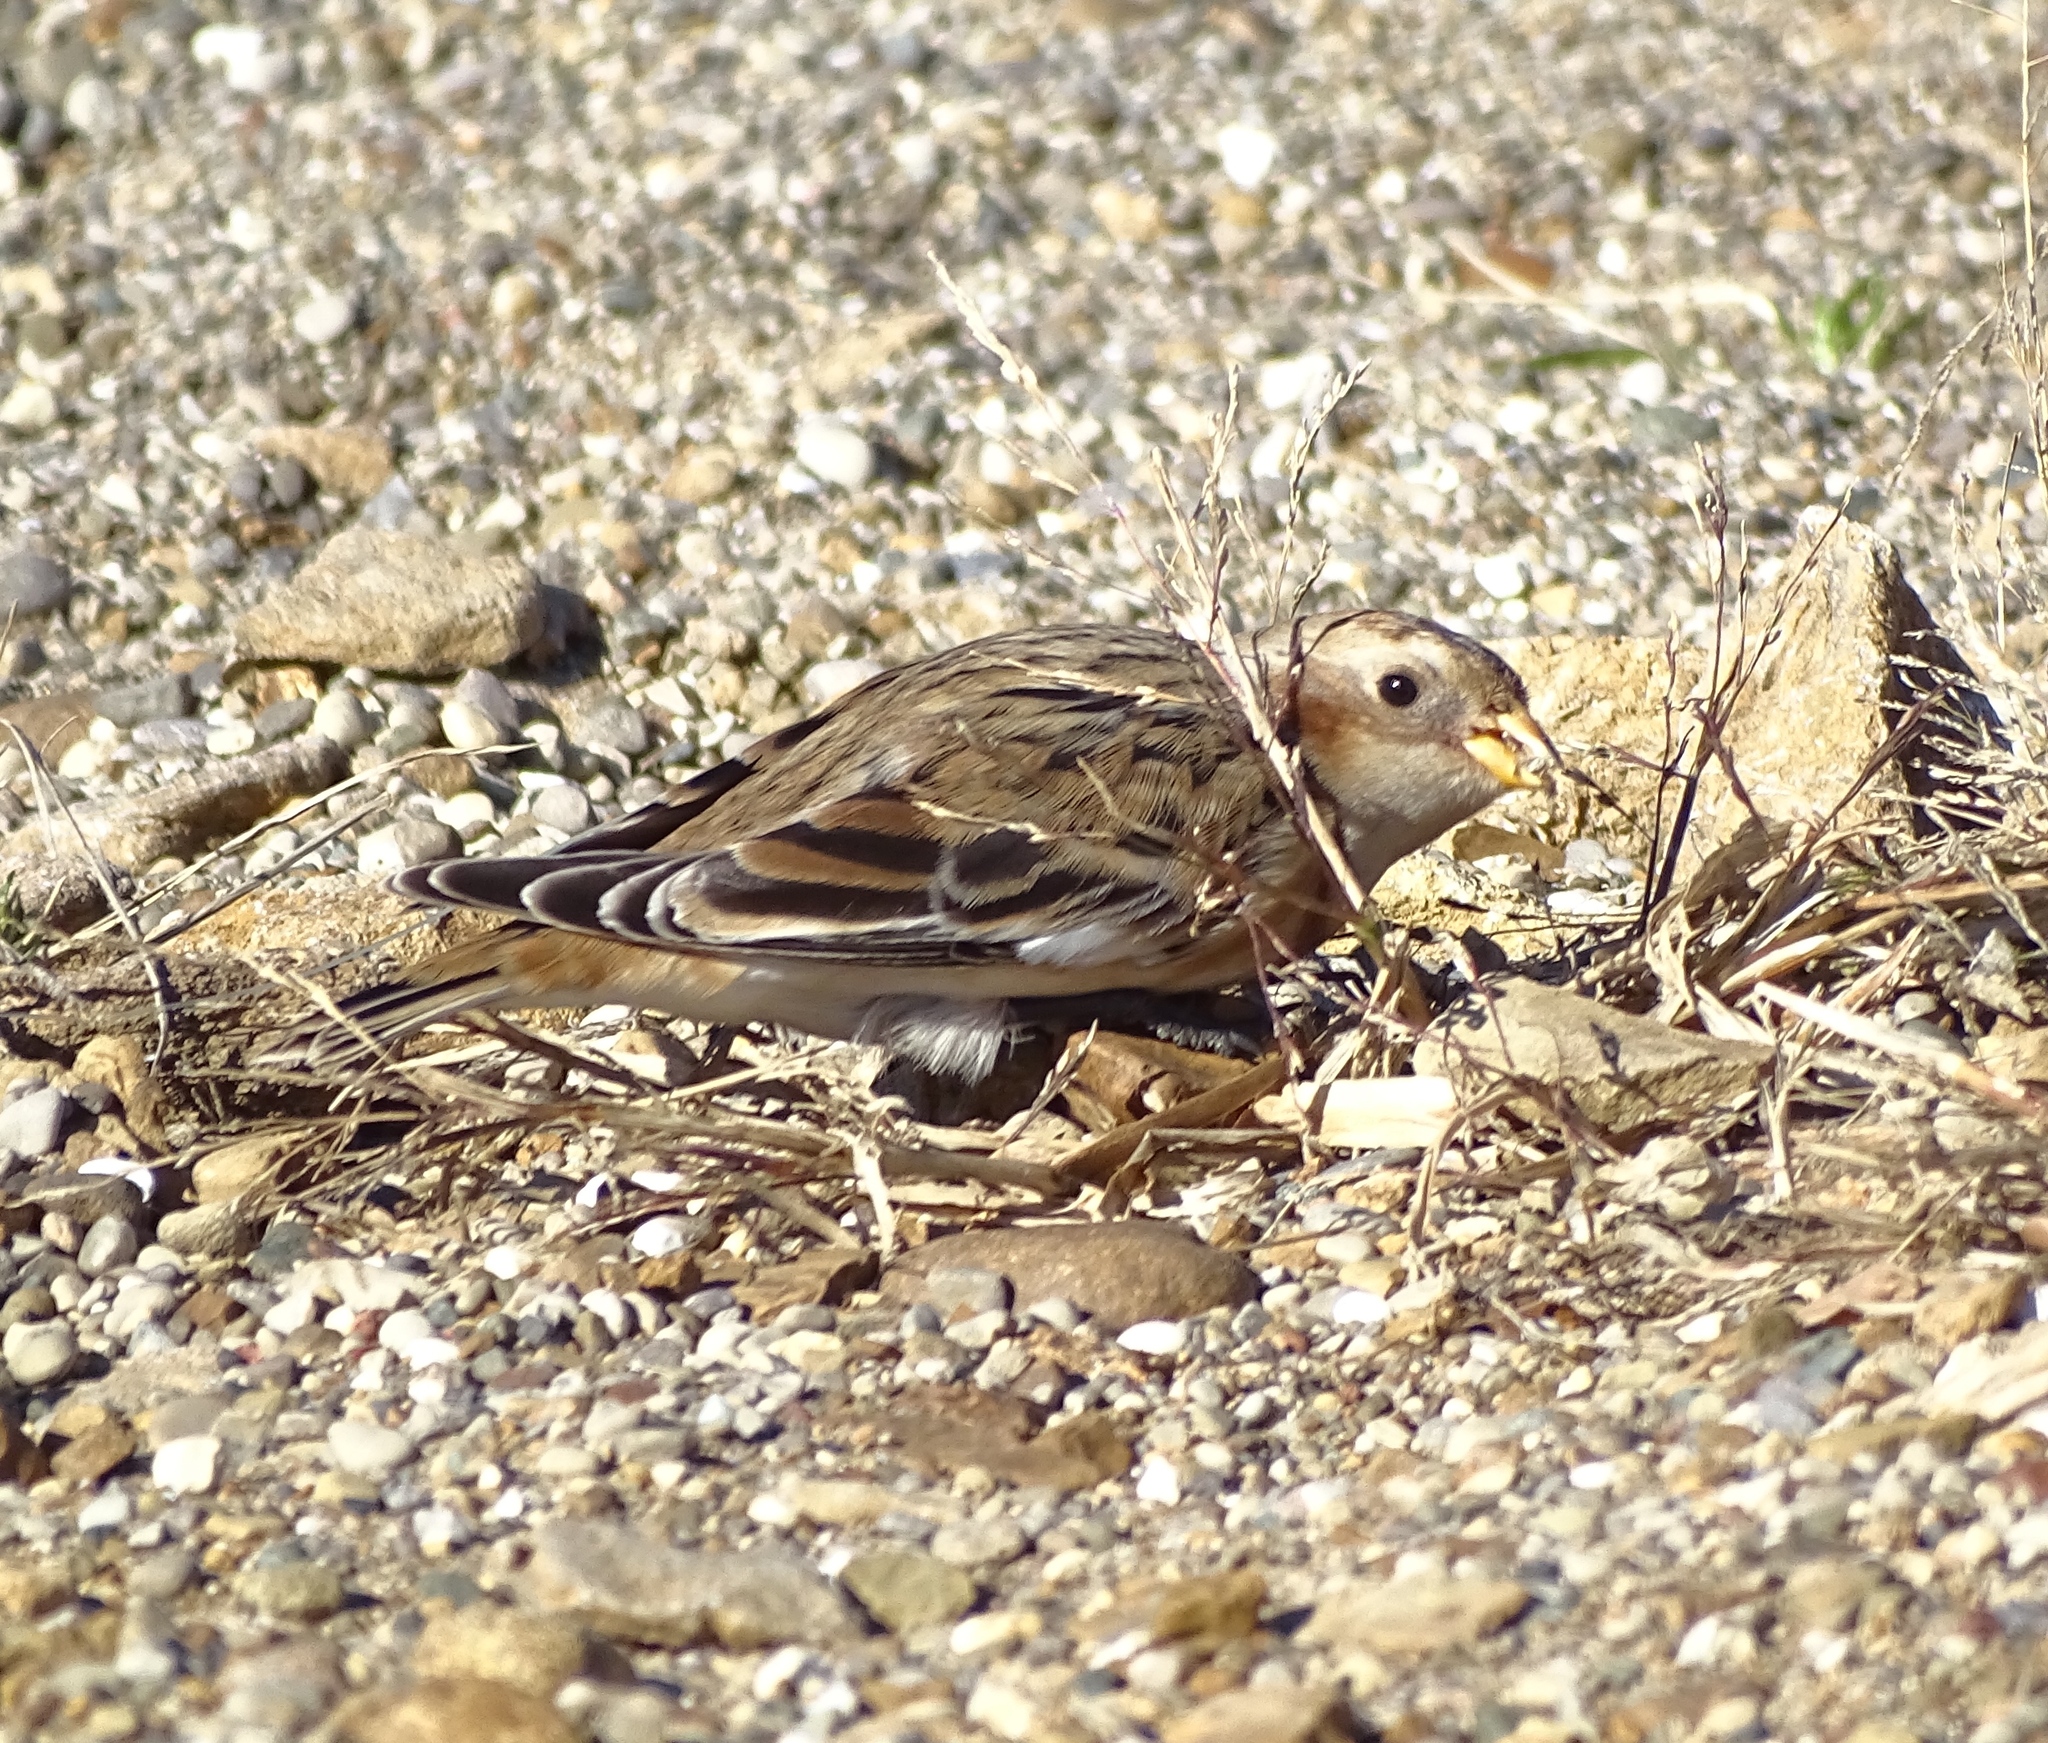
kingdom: Animalia
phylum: Chordata
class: Aves
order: Passeriformes
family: Calcariidae
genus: Plectrophenax
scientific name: Plectrophenax nivalis
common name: Snow bunting
